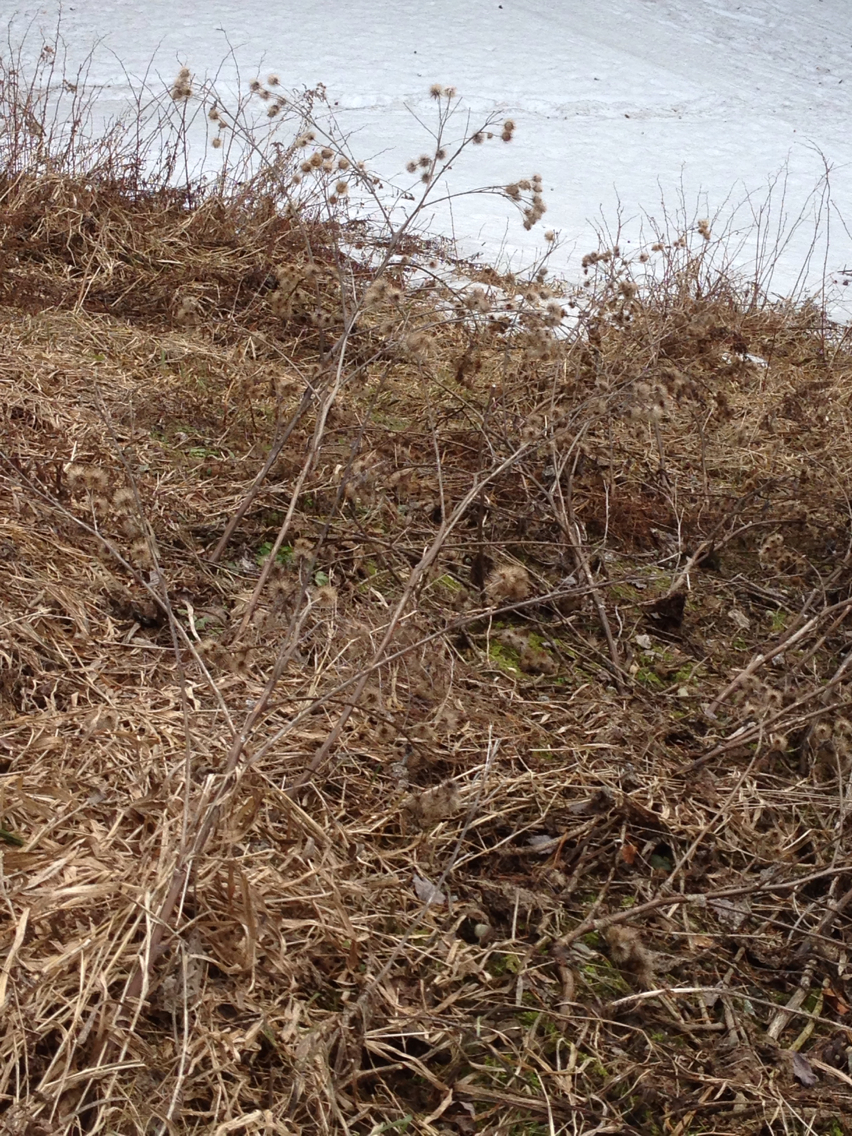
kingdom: Plantae
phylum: Tracheophyta
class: Magnoliopsida
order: Asterales
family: Asteraceae
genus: Arctium
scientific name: Arctium lappa
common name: Greater burdock
